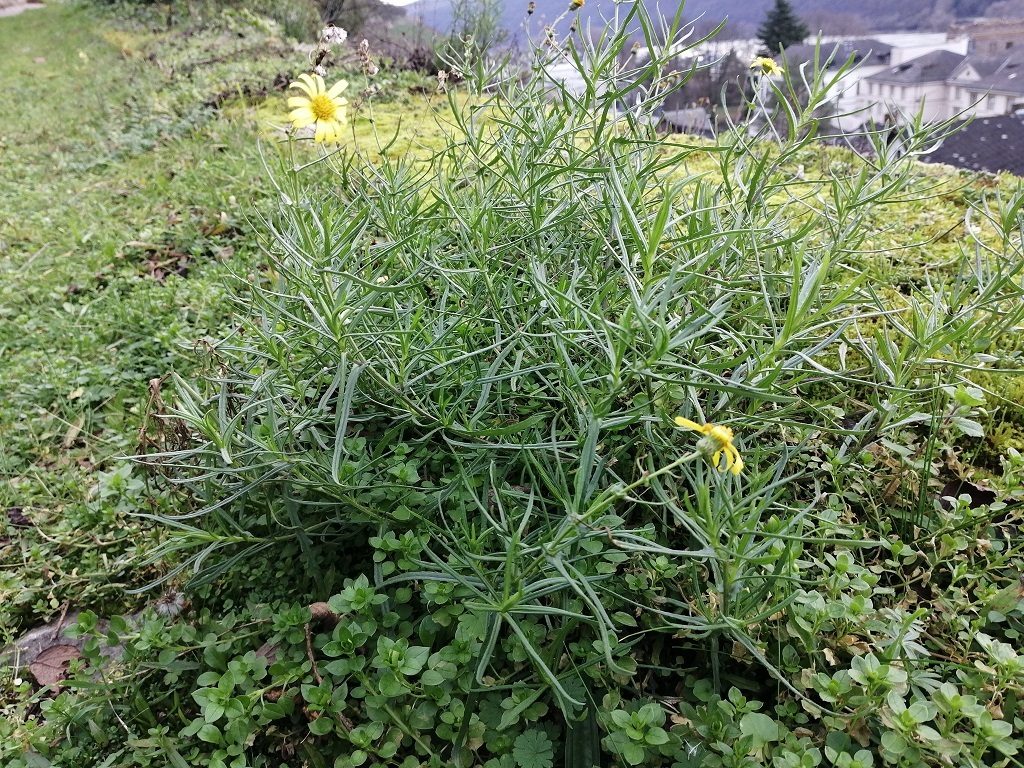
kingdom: Plantae
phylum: Tracheophyta
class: Magnoliopsida
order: Asterales
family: Asteraceae
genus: Senecio
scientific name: Senecio inaequidens
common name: Narrow-leaved ragwort
